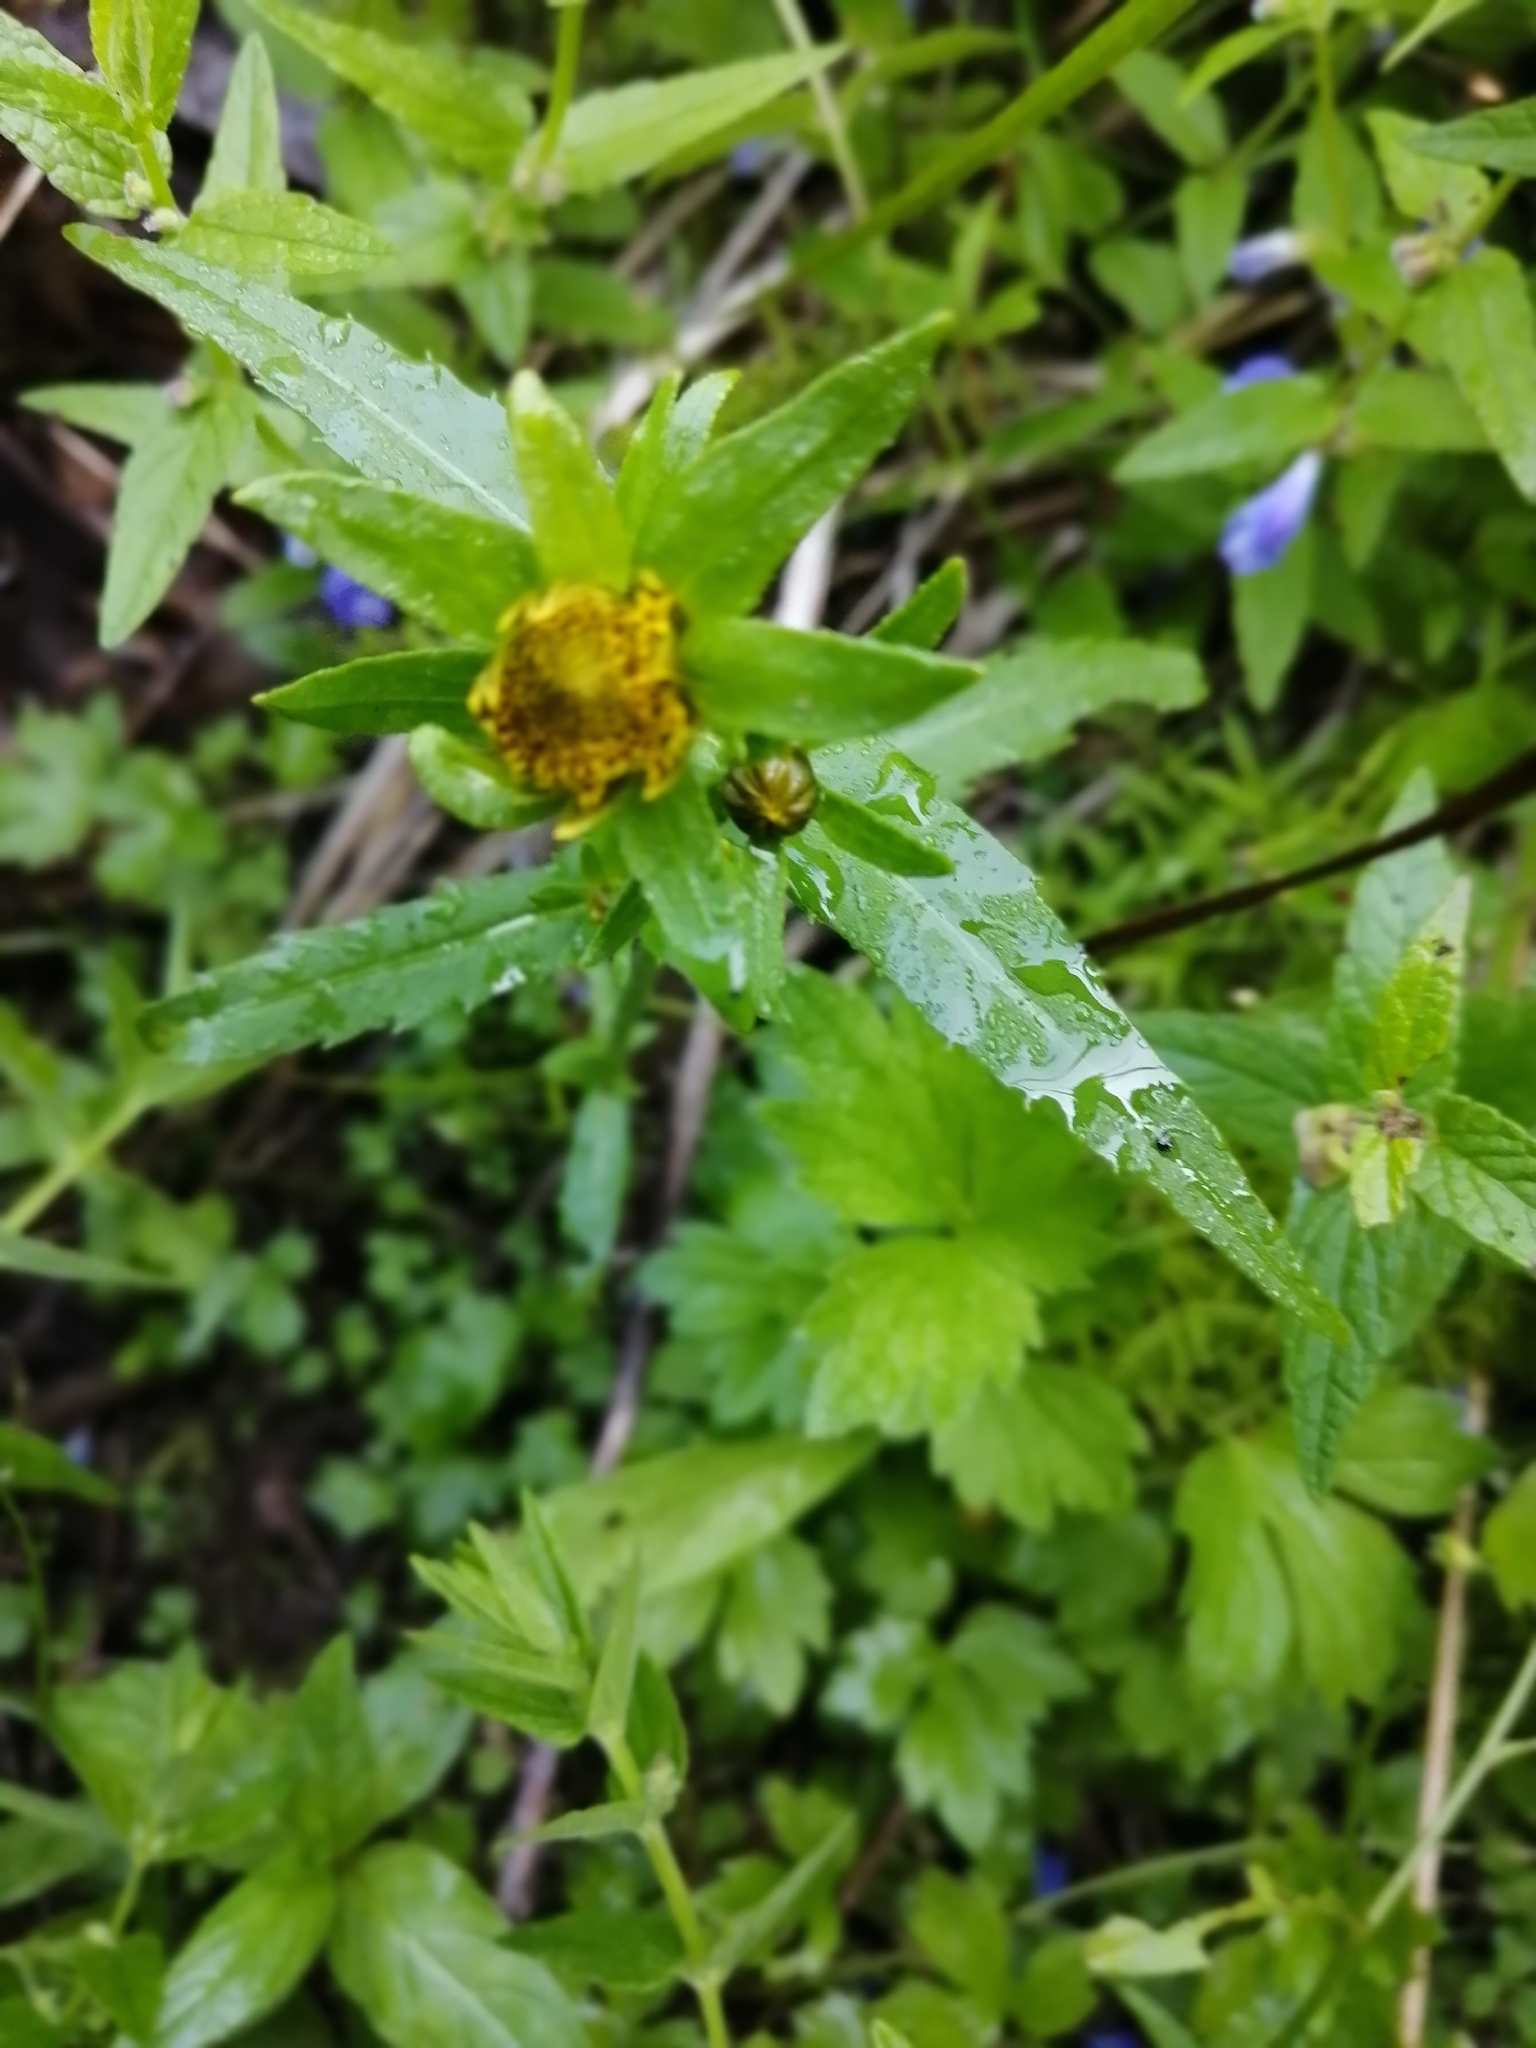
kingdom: Plantae
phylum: Tracheophyta
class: Magnoliopsida
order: Asterales
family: Asteraceae
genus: Bidens
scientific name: Bidens cernua
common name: Nodding bur-marigold
